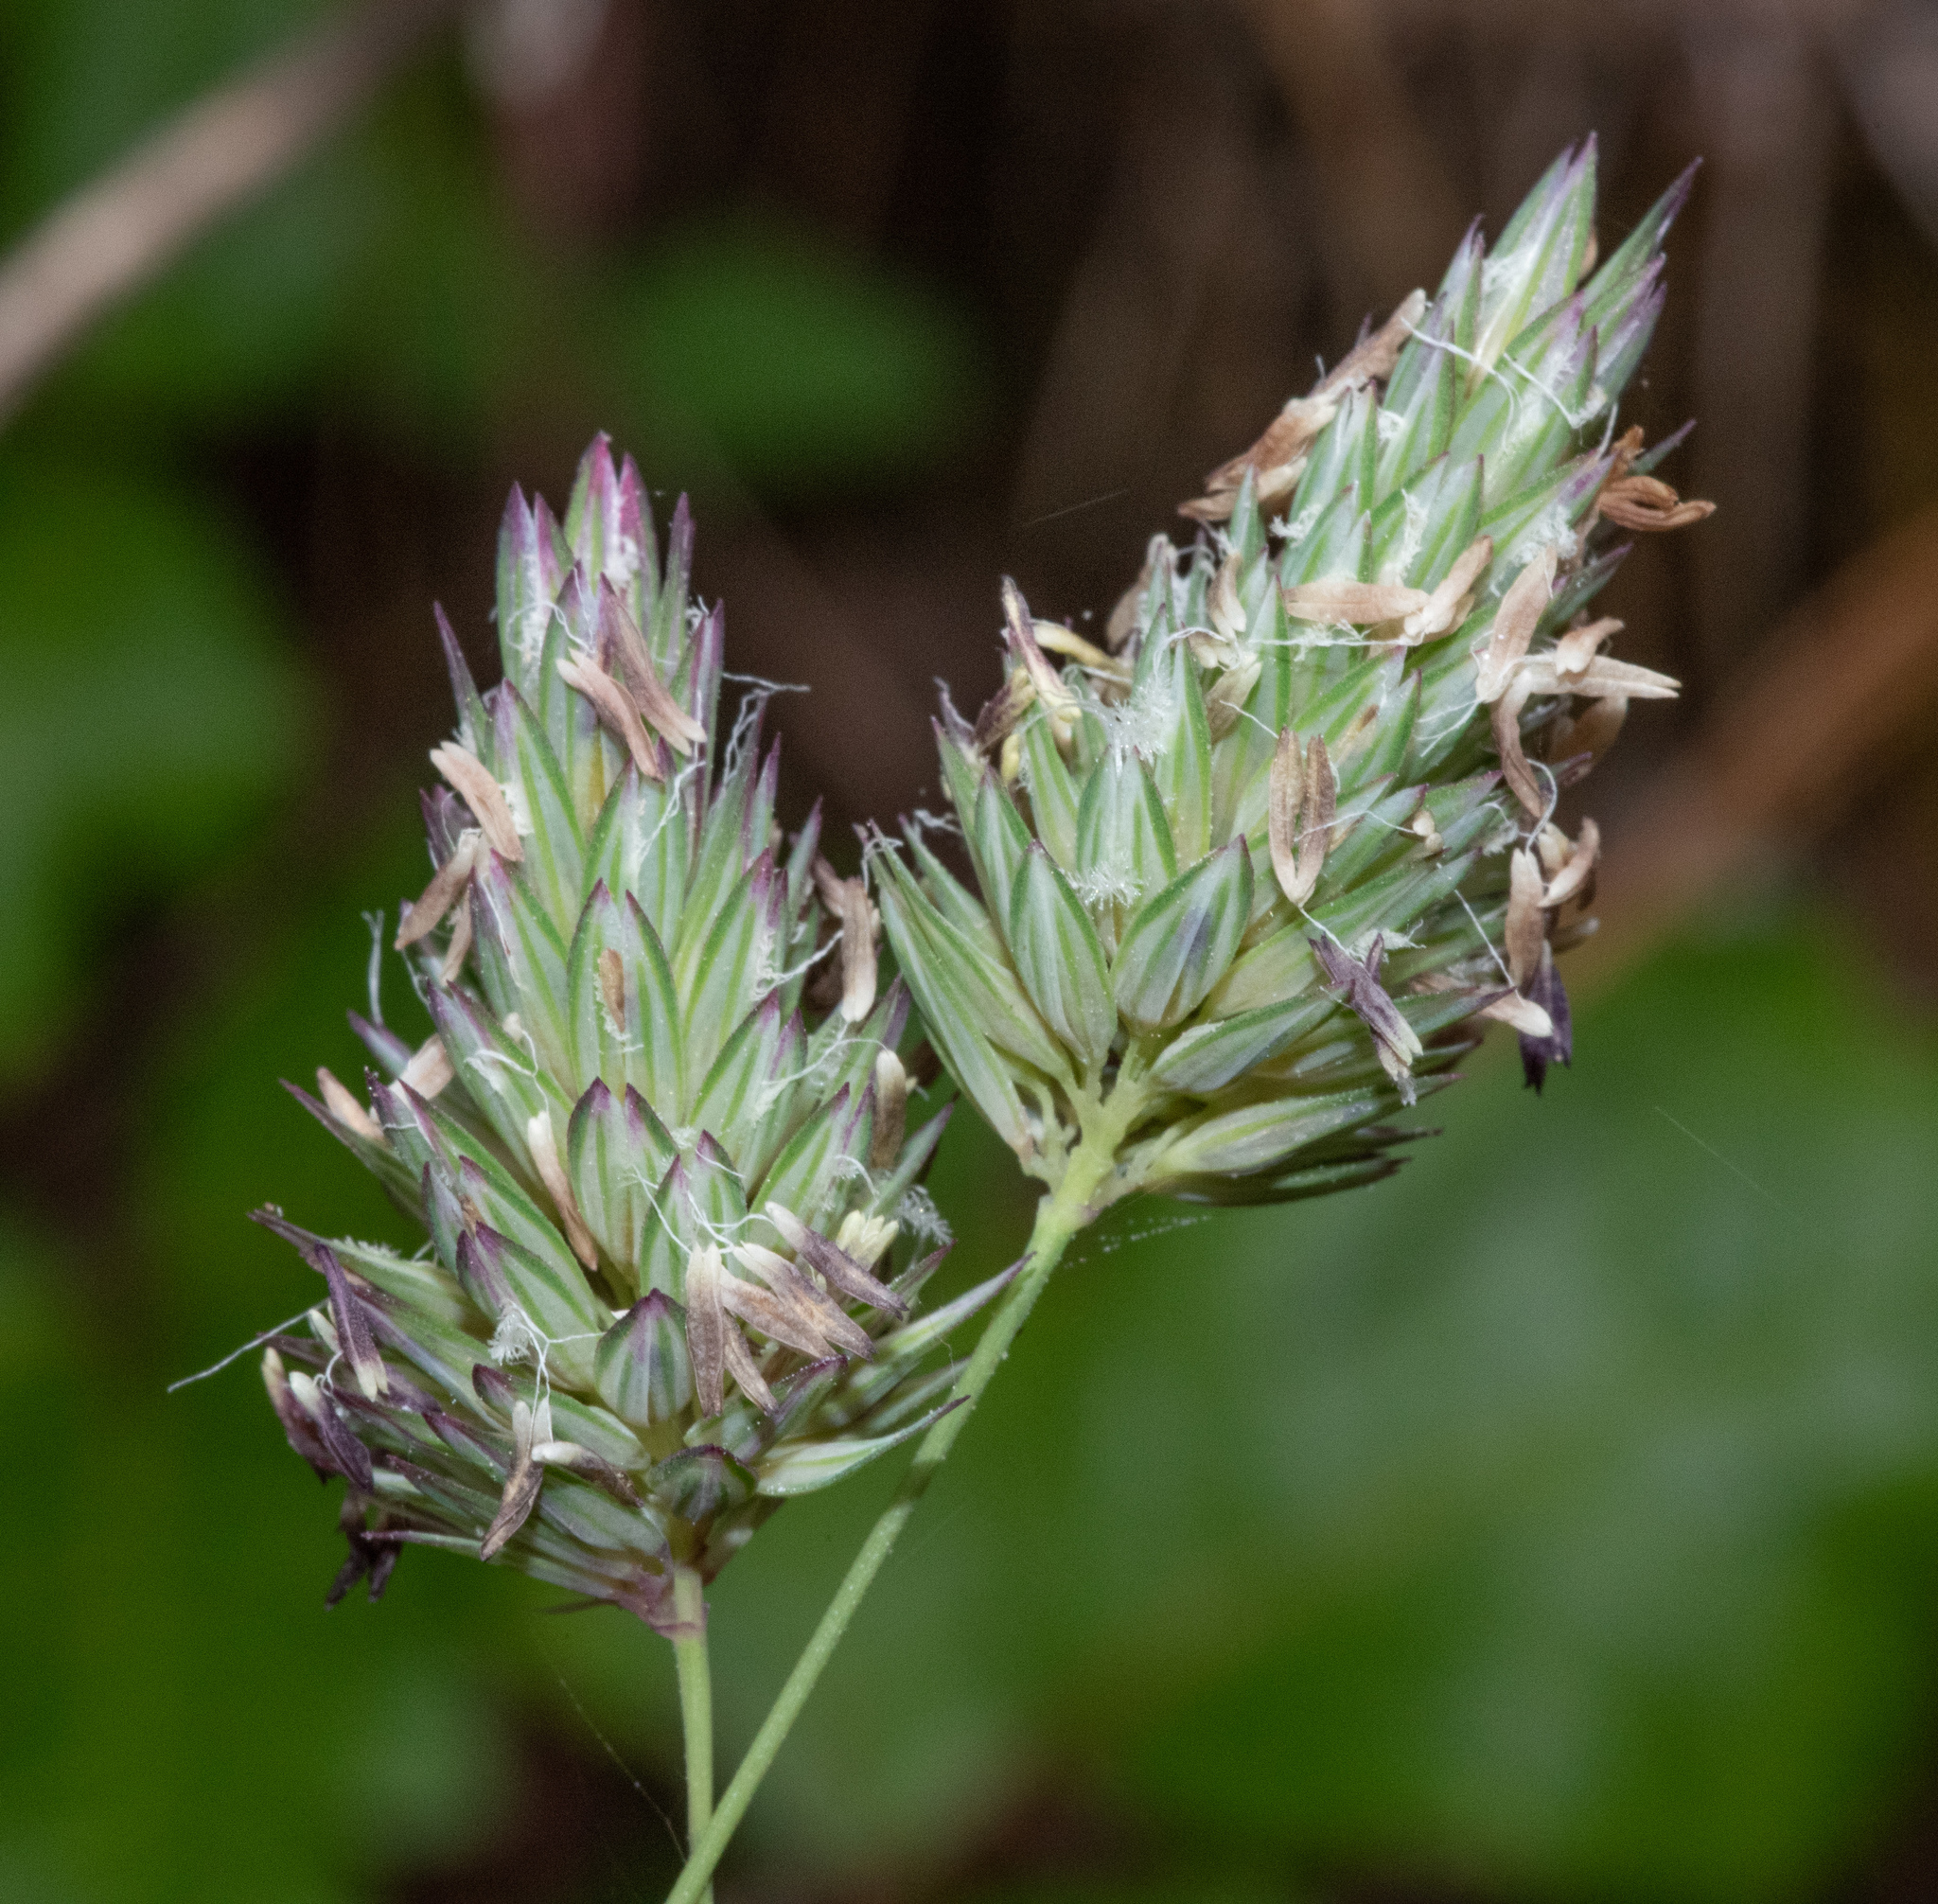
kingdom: Plantae
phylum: Tracheophyta
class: Liliopsida
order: Poales
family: Poaceae
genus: Phalaris
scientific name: Phalaris canariensis
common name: Annual canarygrass
